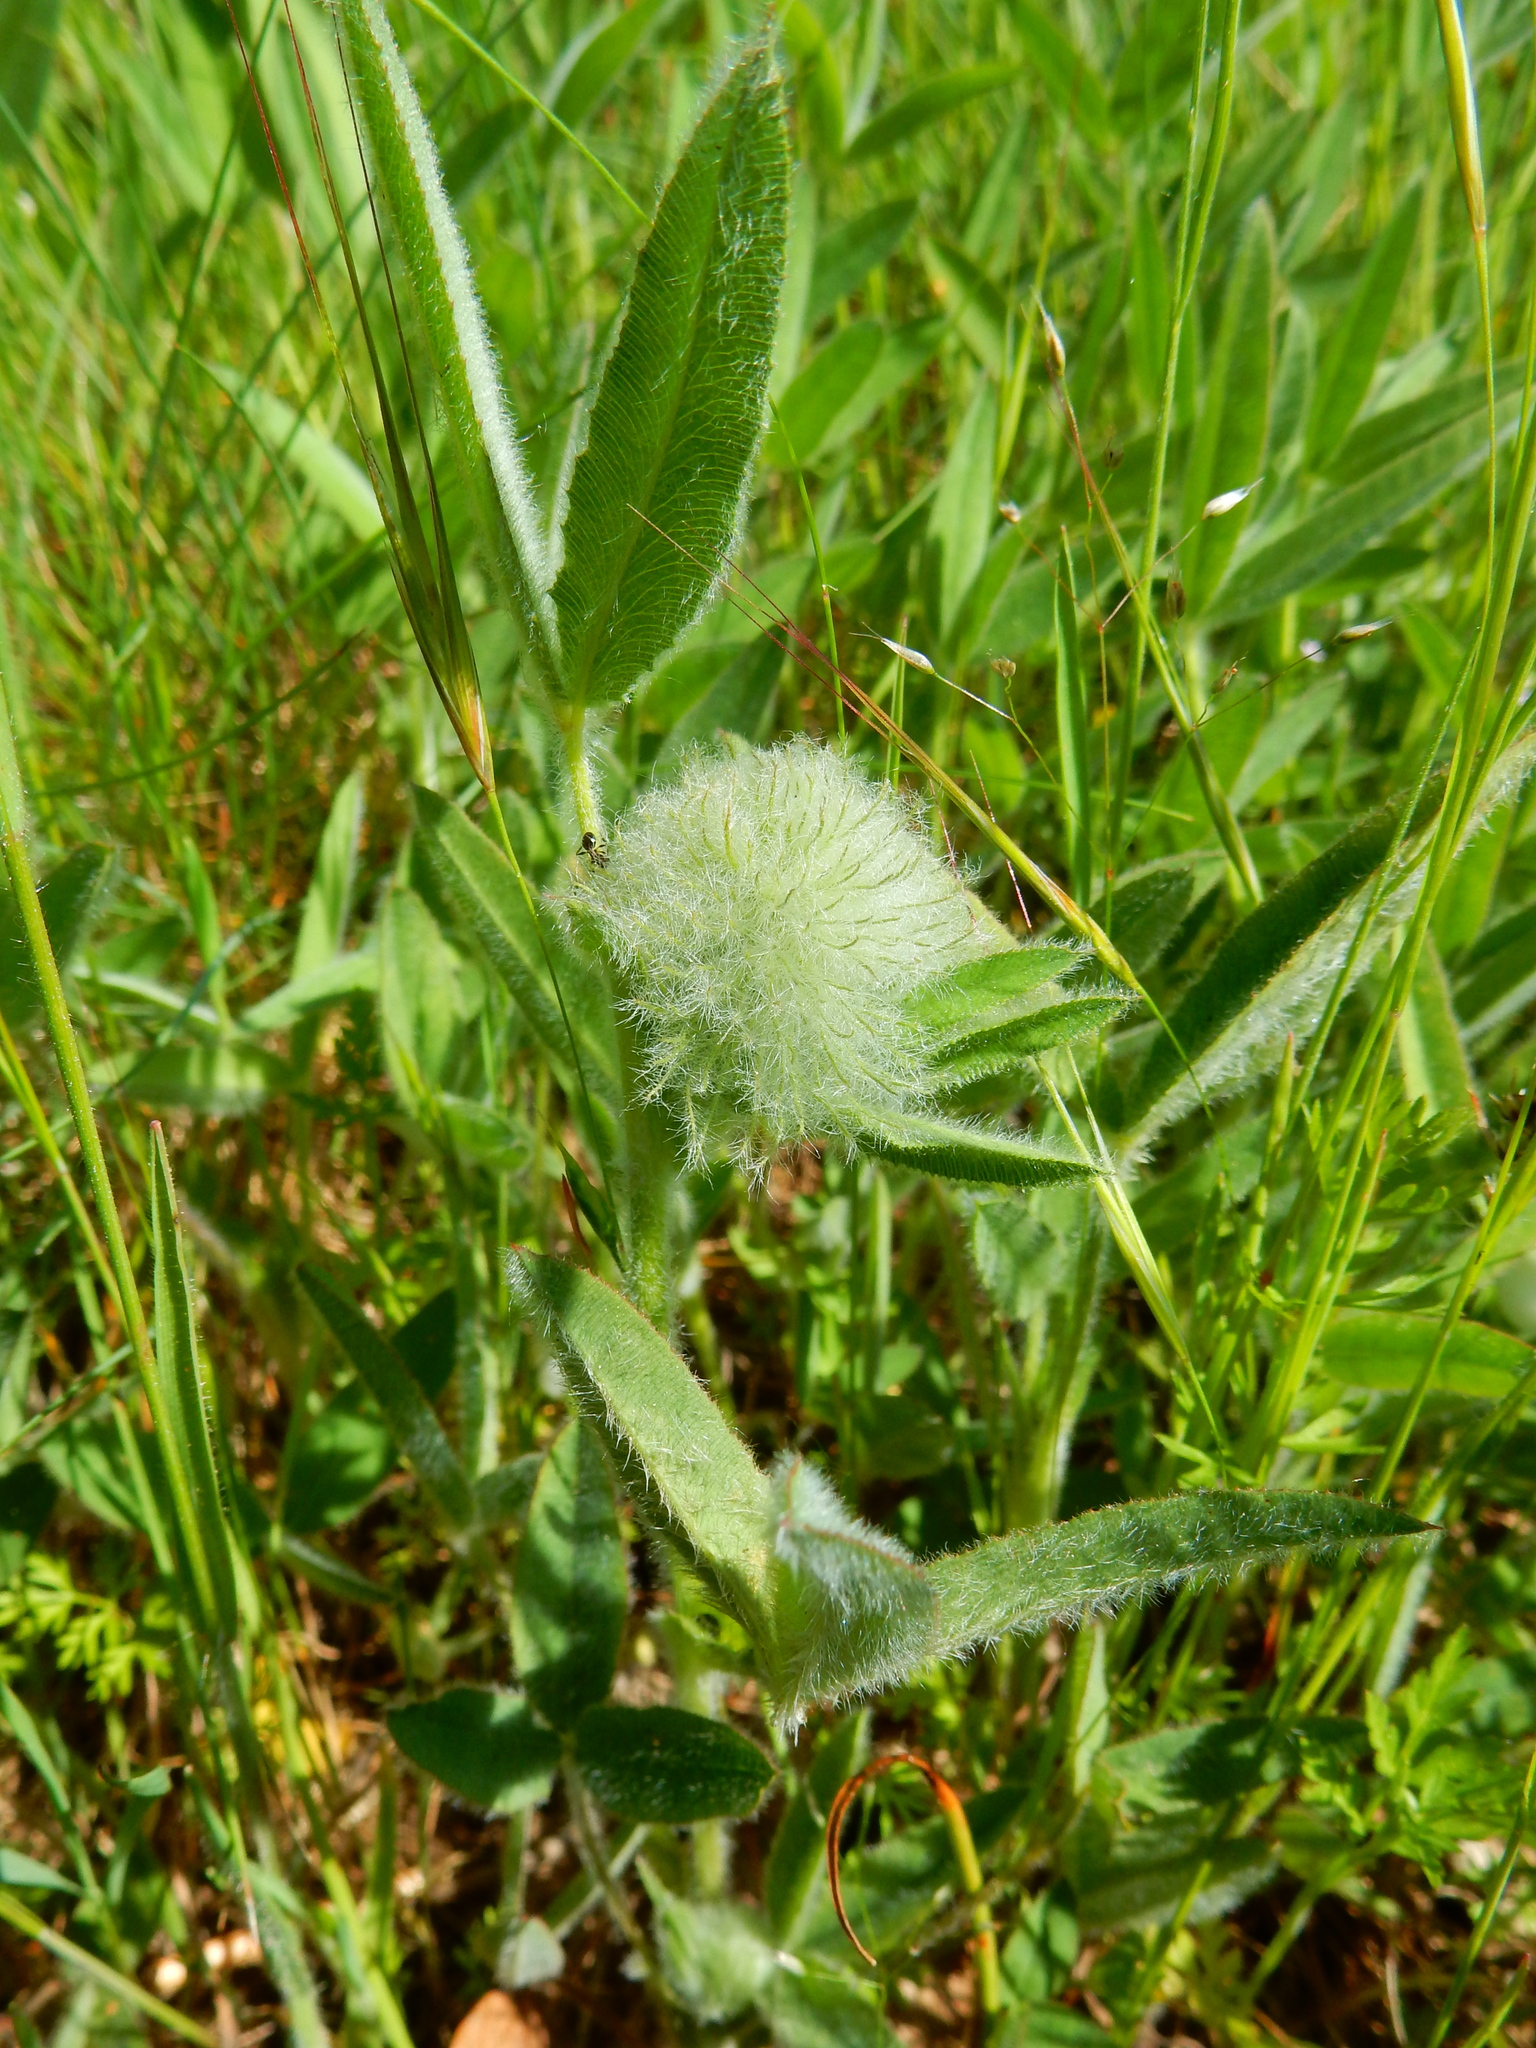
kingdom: Plantae
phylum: Tracheophyta
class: Magnoliopsida
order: Fabales
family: Fabaceae
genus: Trifolium
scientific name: Trifolium eriocephalum
